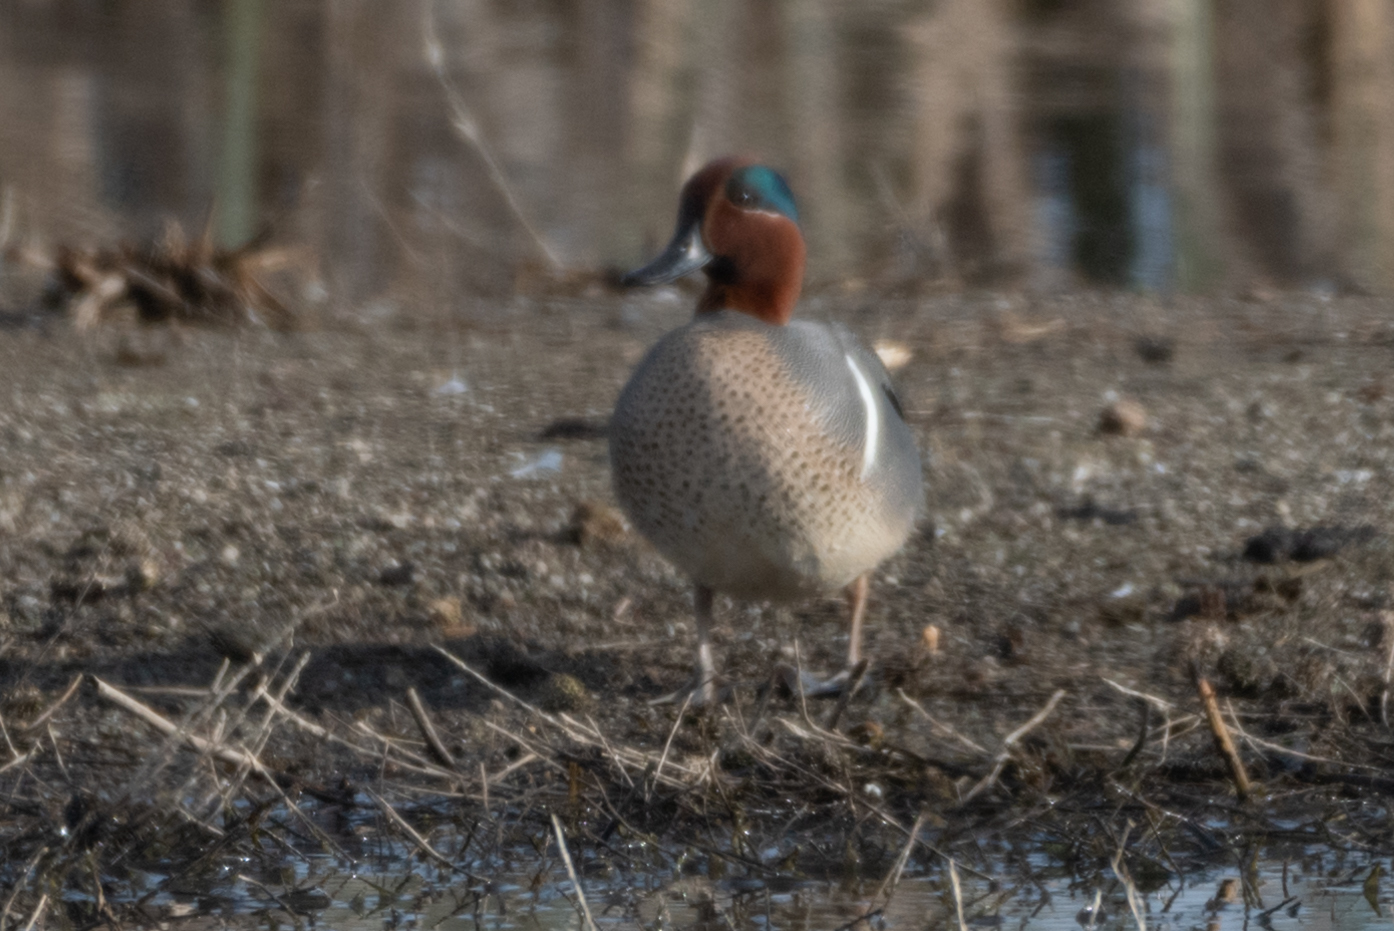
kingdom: Animalia
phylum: Chordata
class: Aves
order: Anseriformes
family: Anatidae
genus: Anas
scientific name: Anas crecca
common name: Eurasian teal
